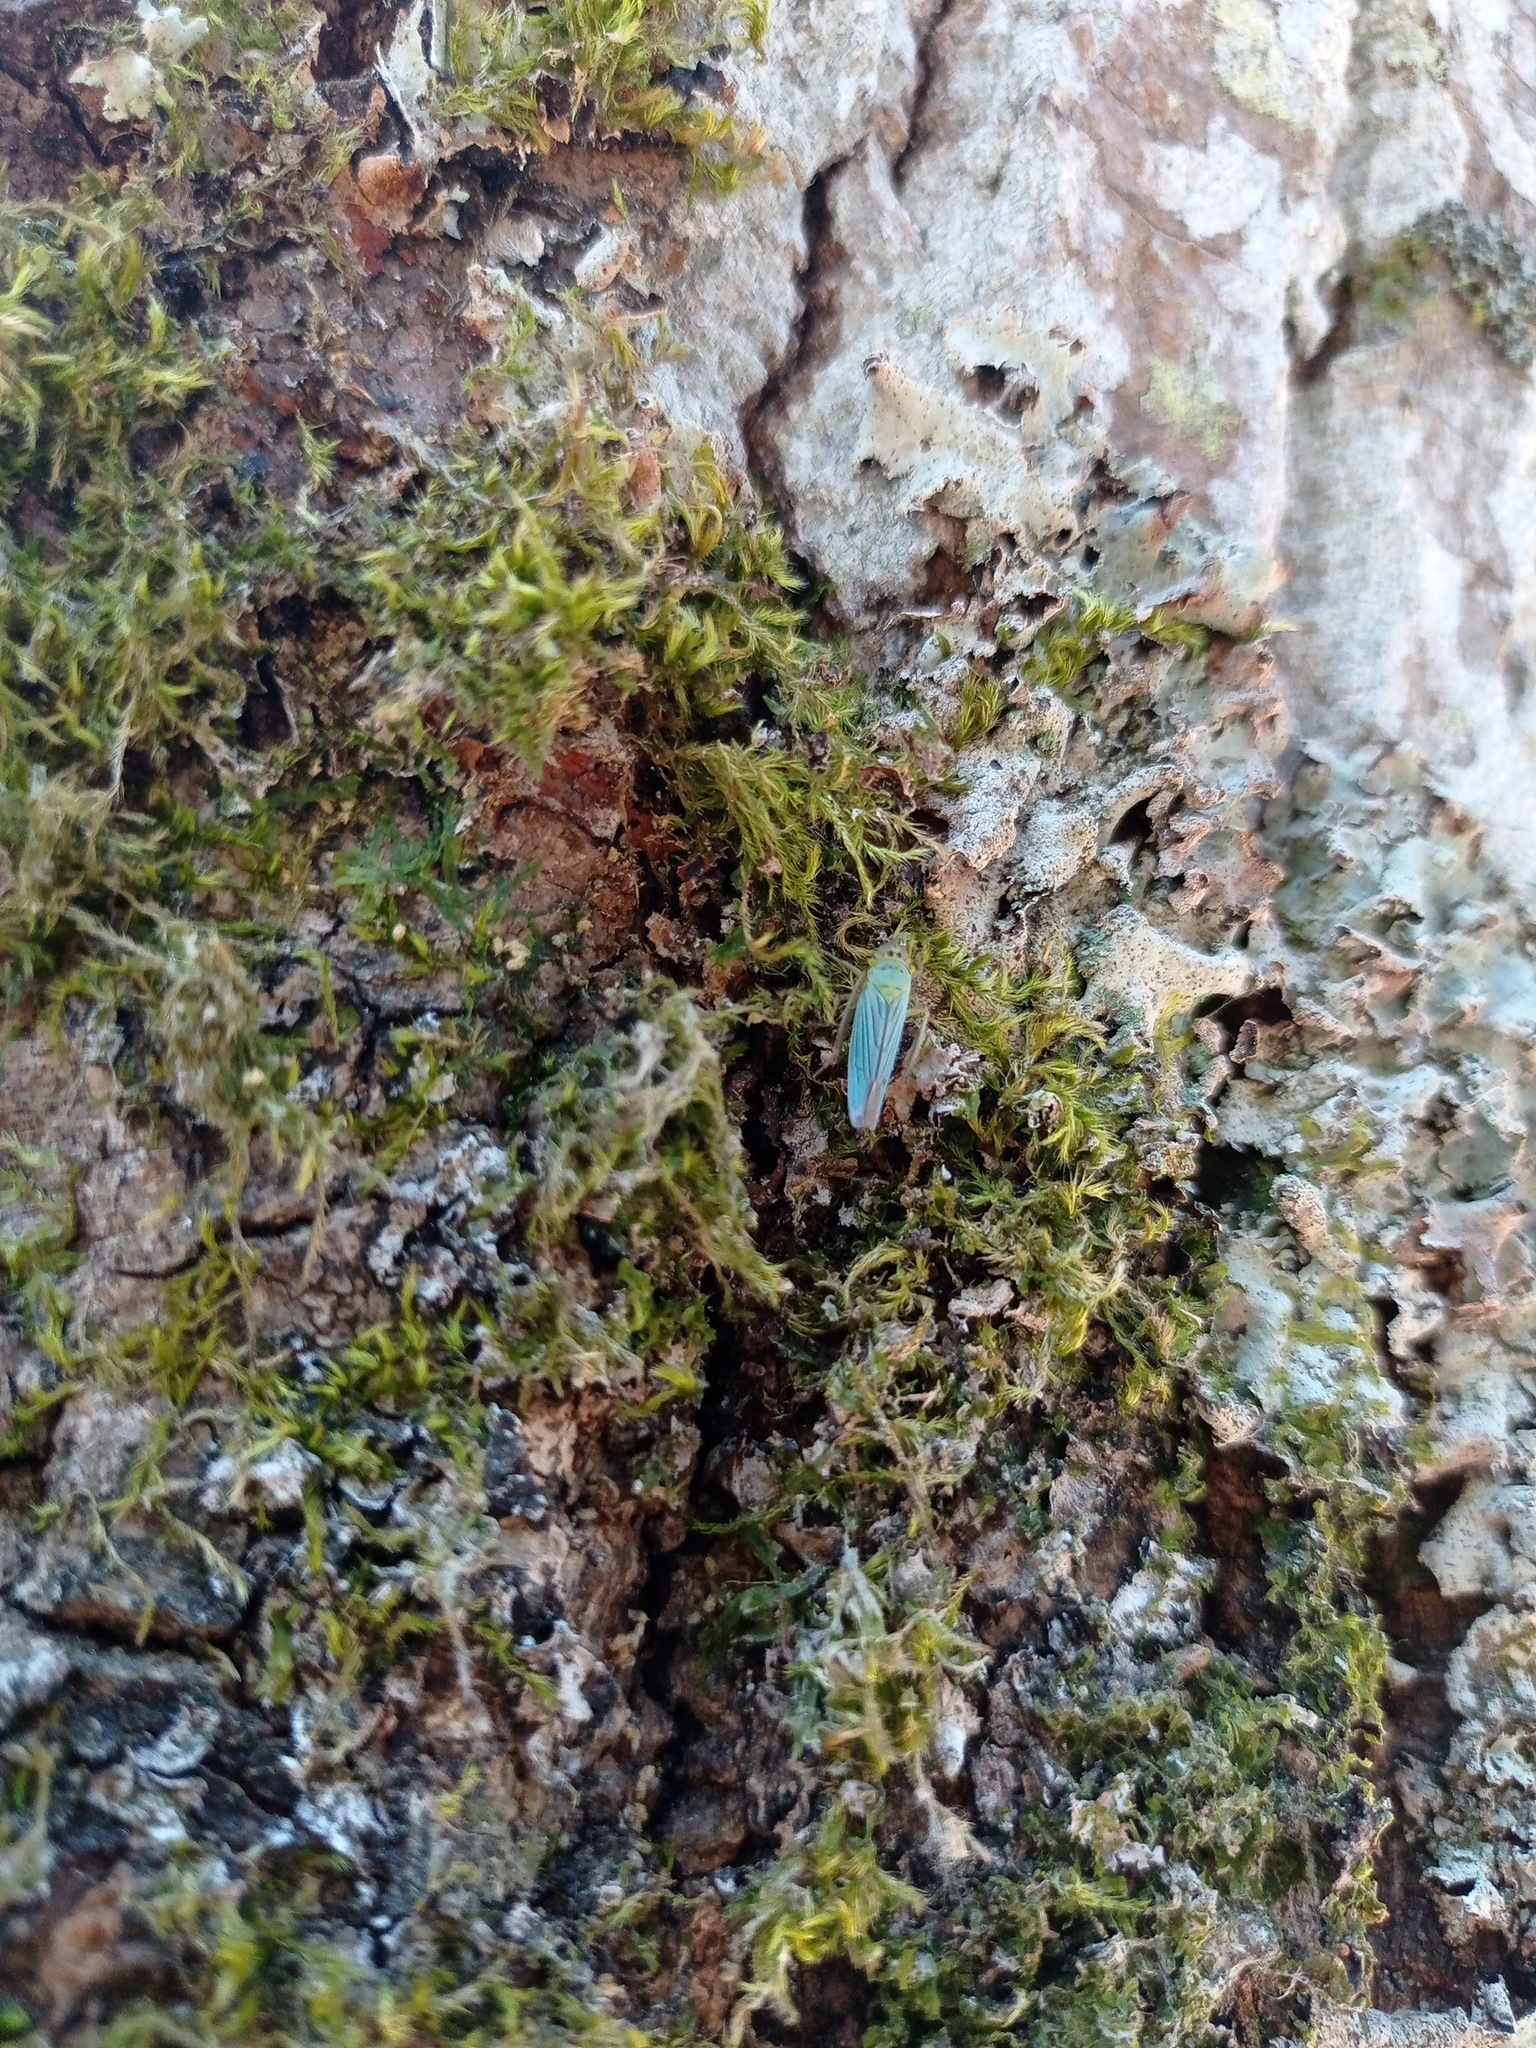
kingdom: Animalia
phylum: Arthropoda
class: Insecta
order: Hemiptera
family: Cicadellidae
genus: Cicadella
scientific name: Cicadella viridis
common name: Leafhopper
